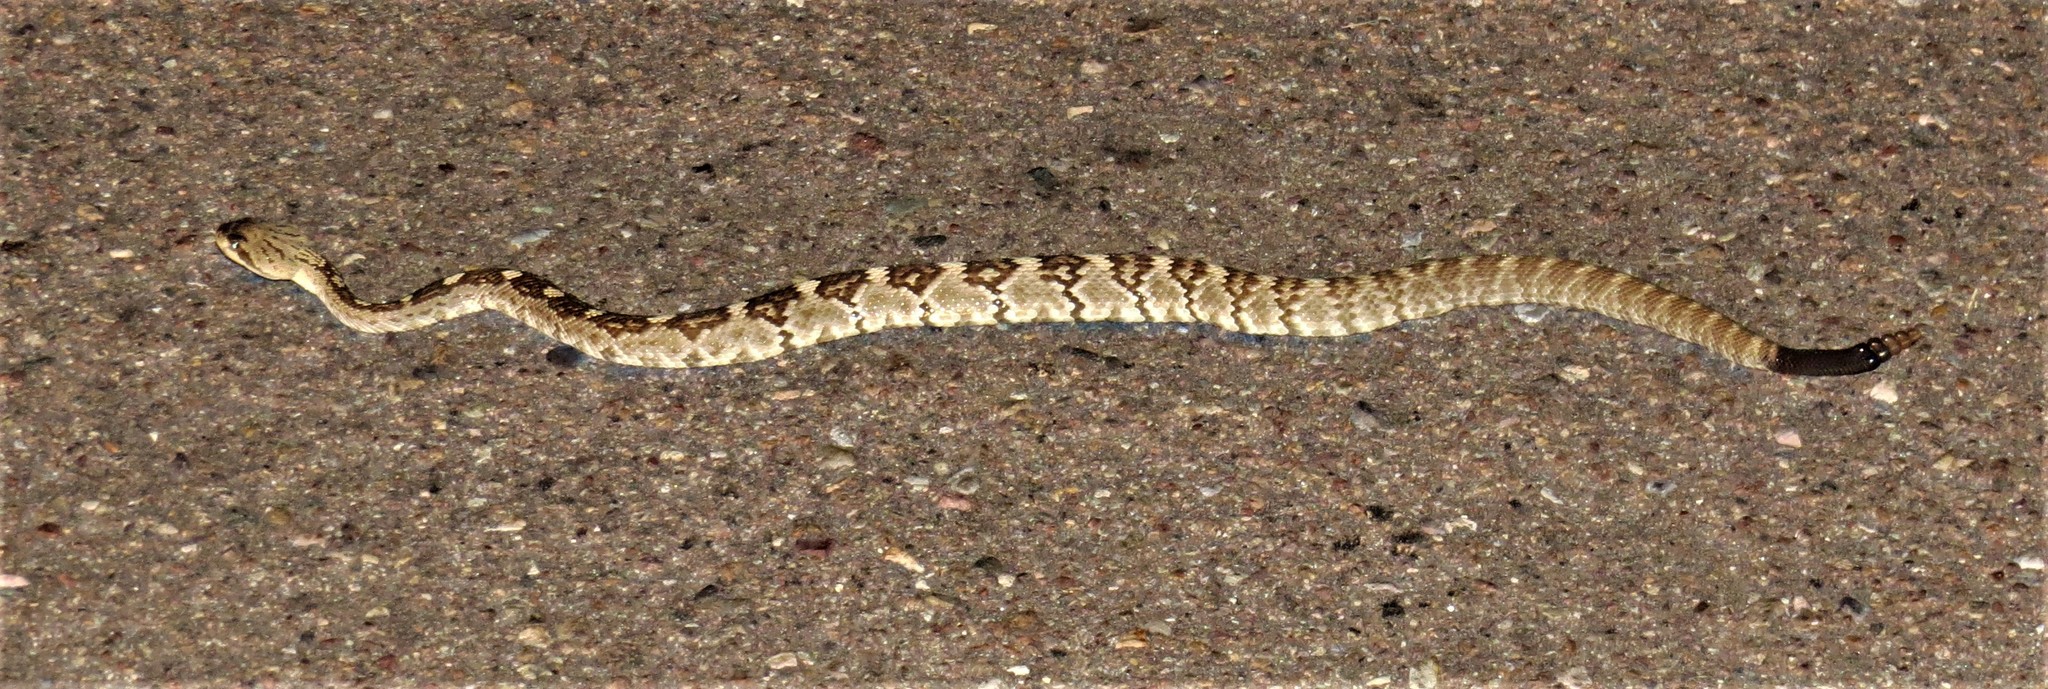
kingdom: Animalia
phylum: Chordata
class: Squamata
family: Viperidae
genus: Crotalus
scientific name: Crotalus ornatus
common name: Black-tailed rattlesnake
